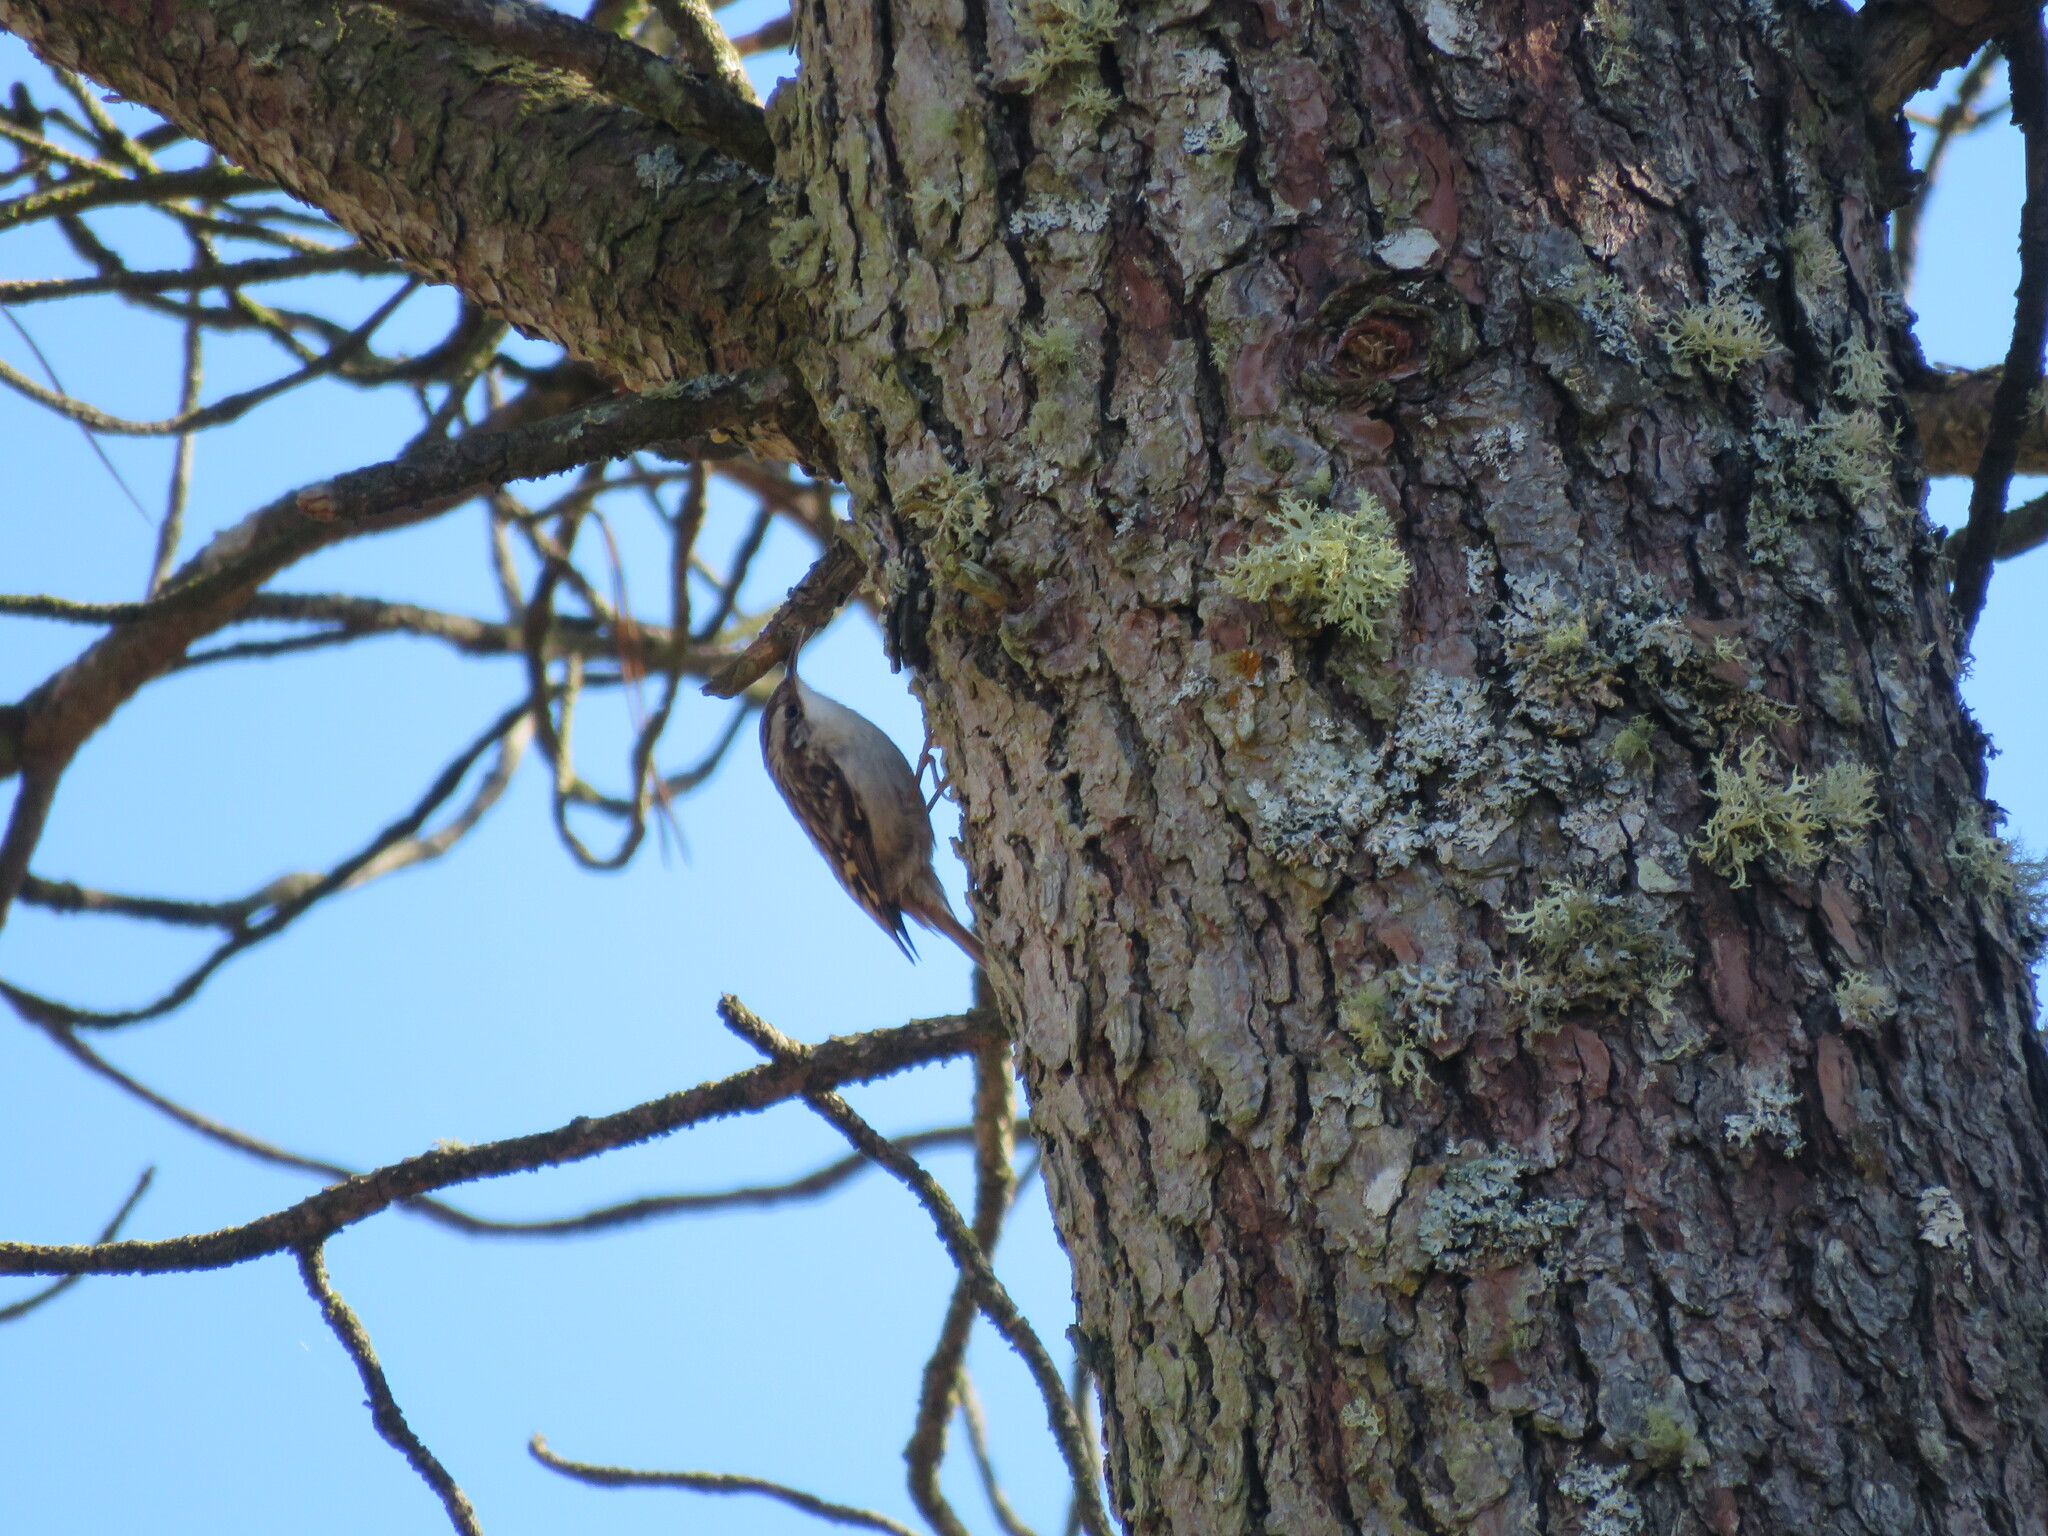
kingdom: Animalia
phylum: Chordata
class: Aves
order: Passeriformes
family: Certhiidae
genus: Certhia
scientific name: Certhia brachydactyla
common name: Short-toed treecreeper
